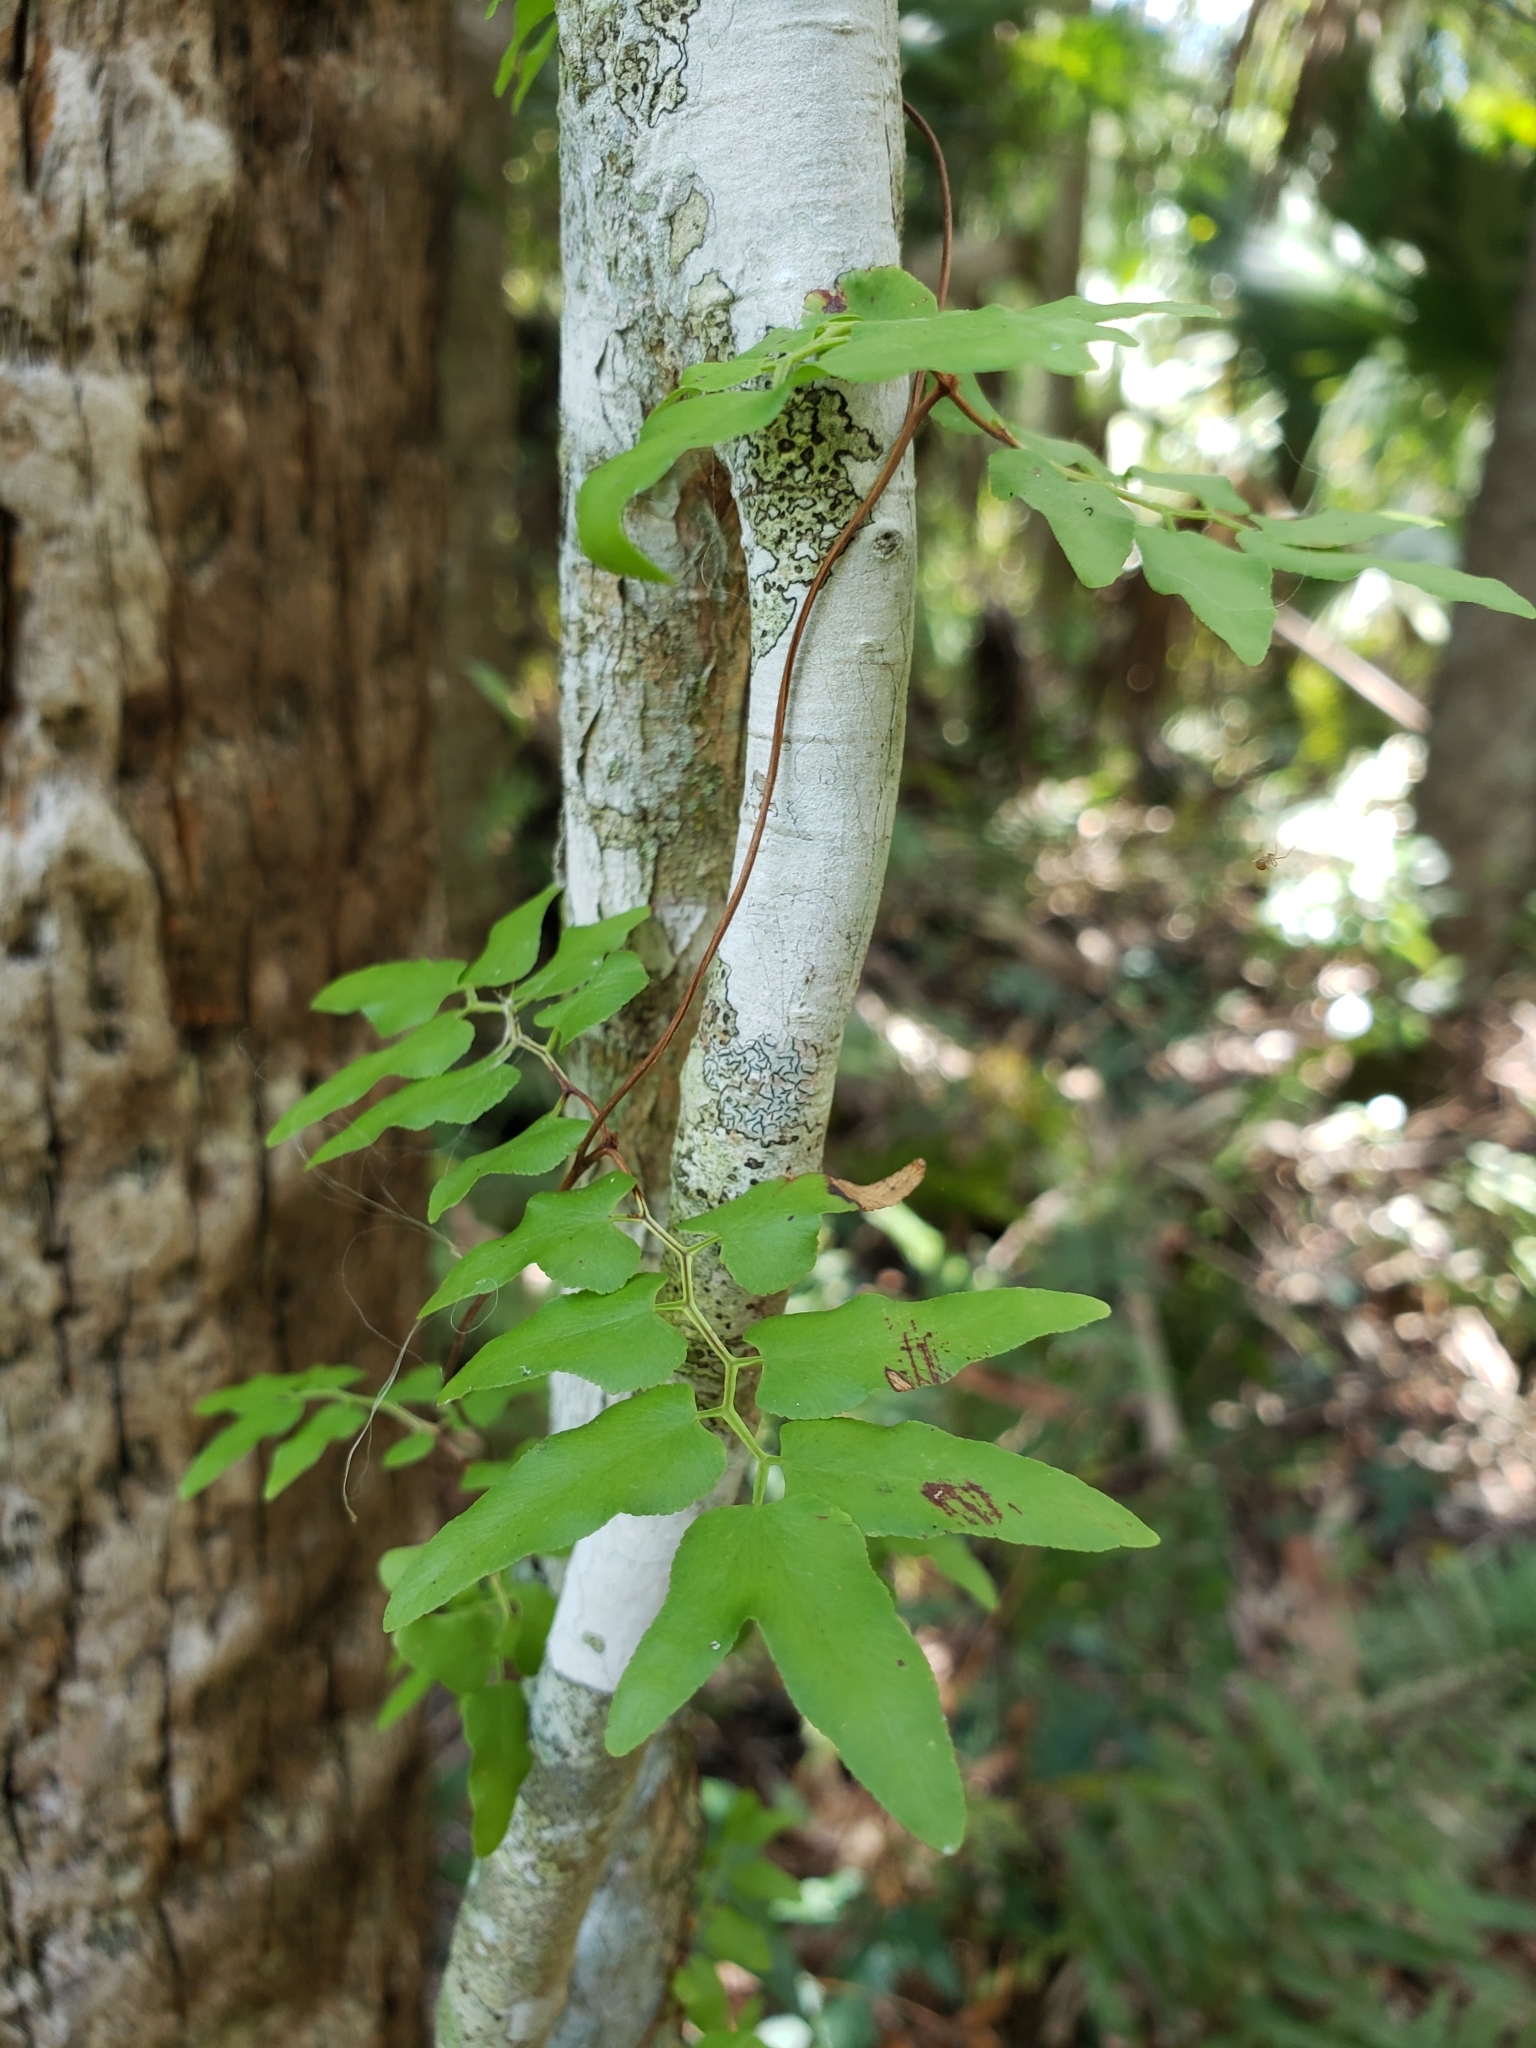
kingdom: Plantae
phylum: Tracheophyta
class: Polypodiopsida
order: Schizaeales
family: Lygodiaceae
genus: Lygodium
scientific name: Lygodium microphyllum
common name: Small-leaf climbing fern
